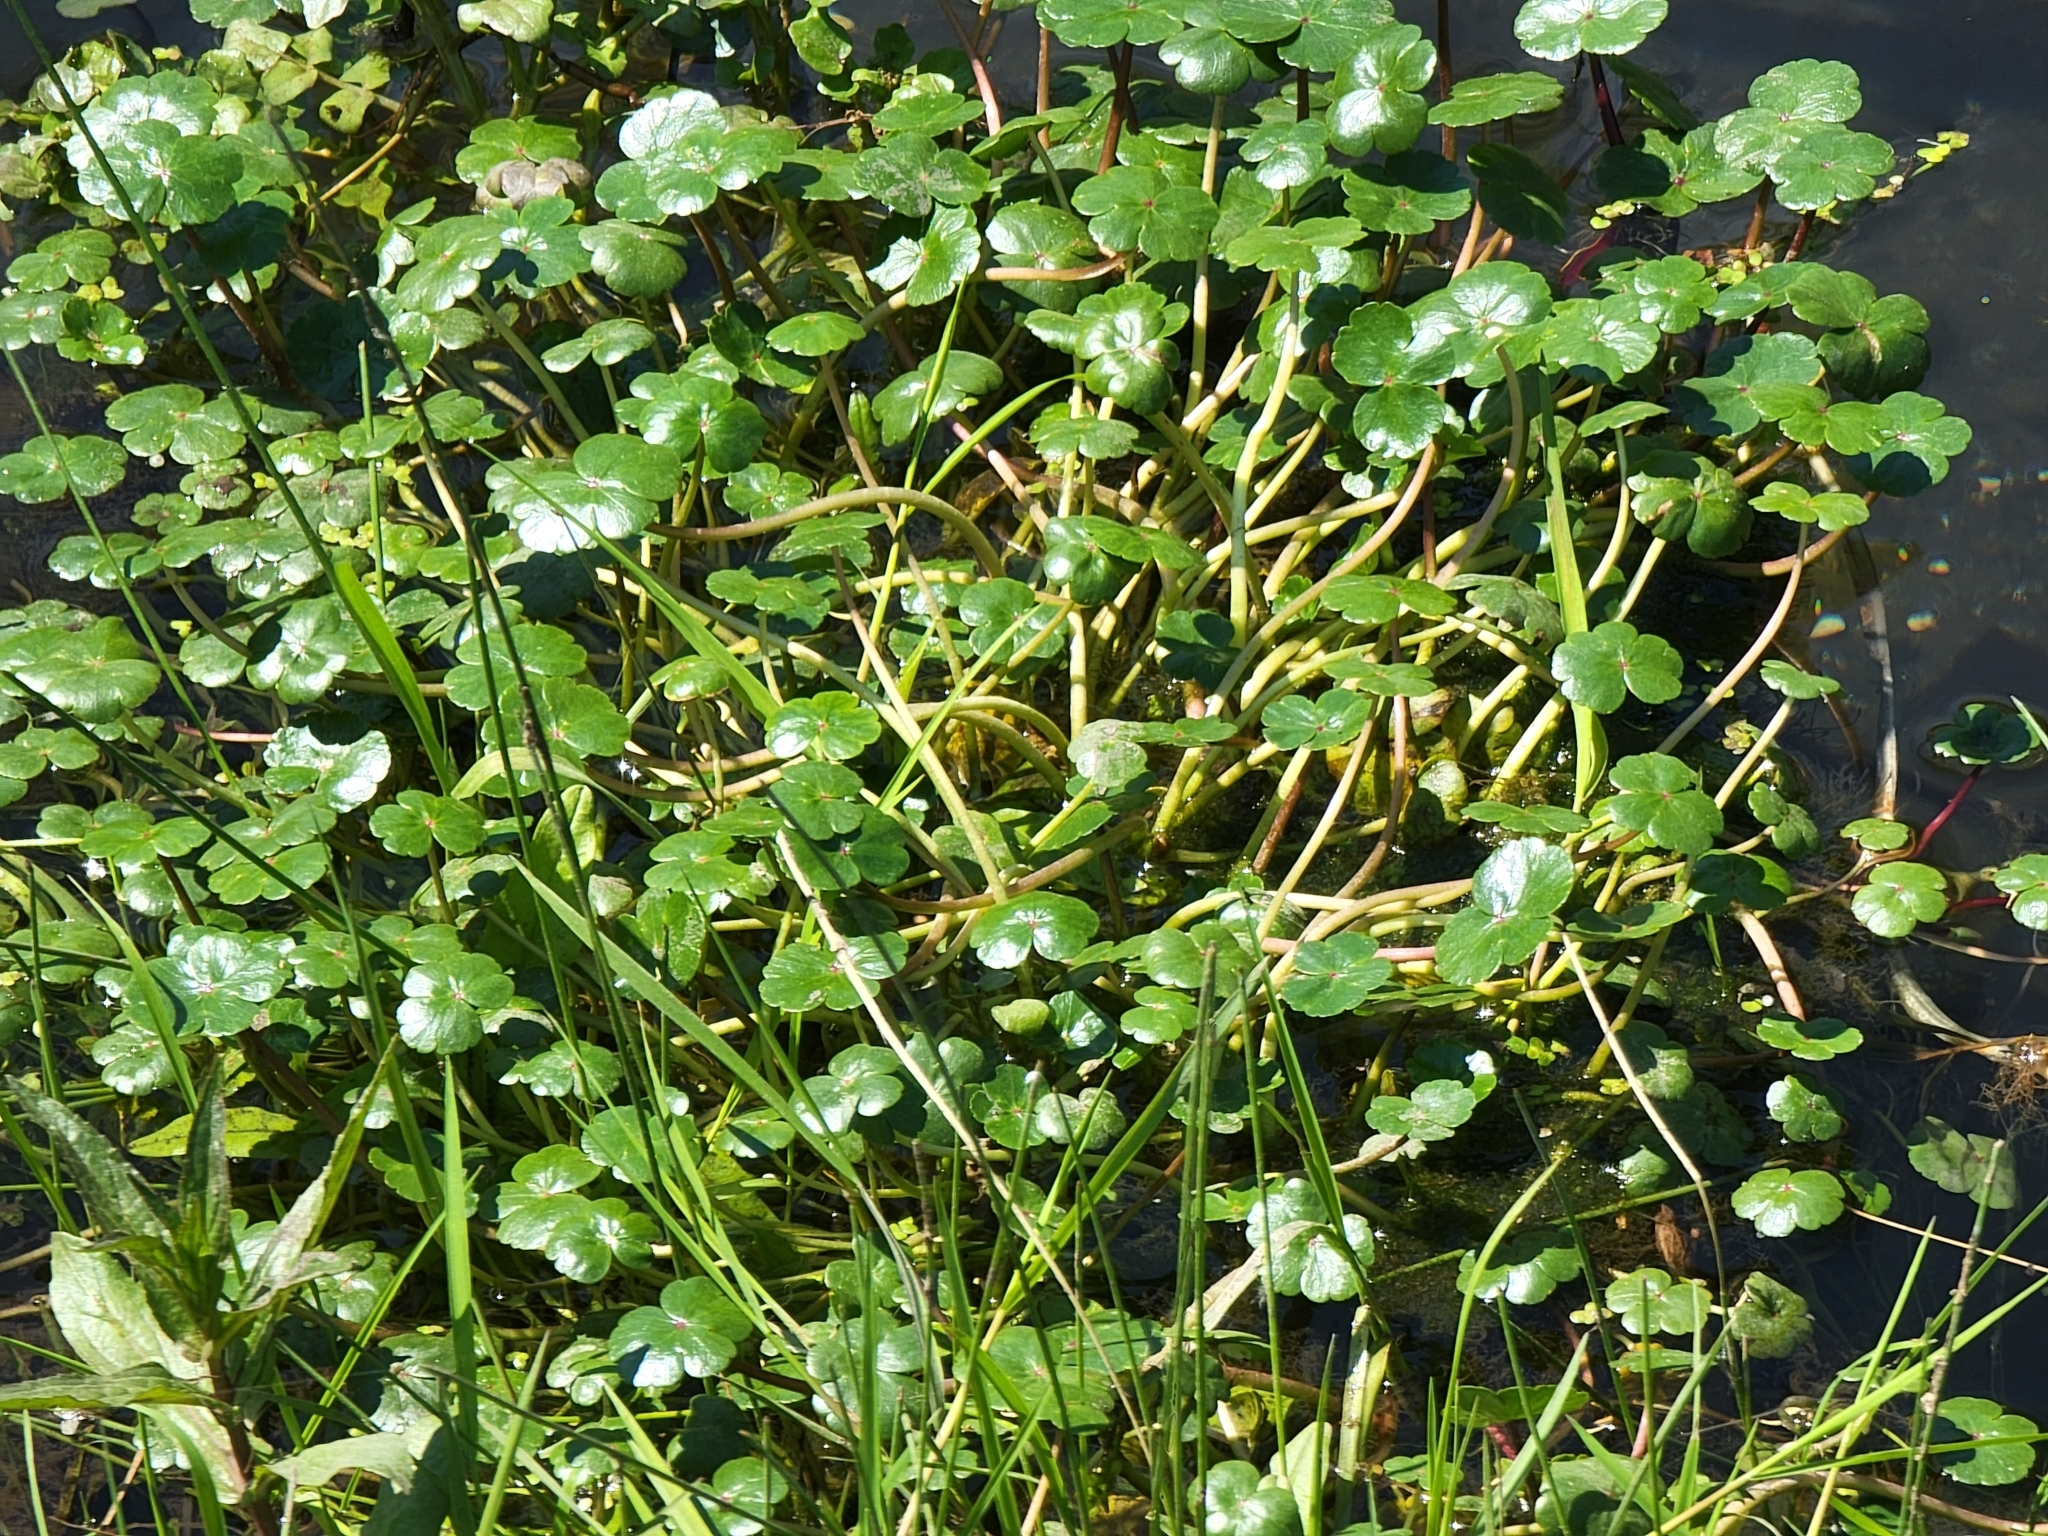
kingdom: Plantae
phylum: Tracheophyta
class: Magnoliopsida
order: Apiales
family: Araliaceae
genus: Hydrocotyle
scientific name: Hydrocotyle ranunculoides
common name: Floating pennywort
